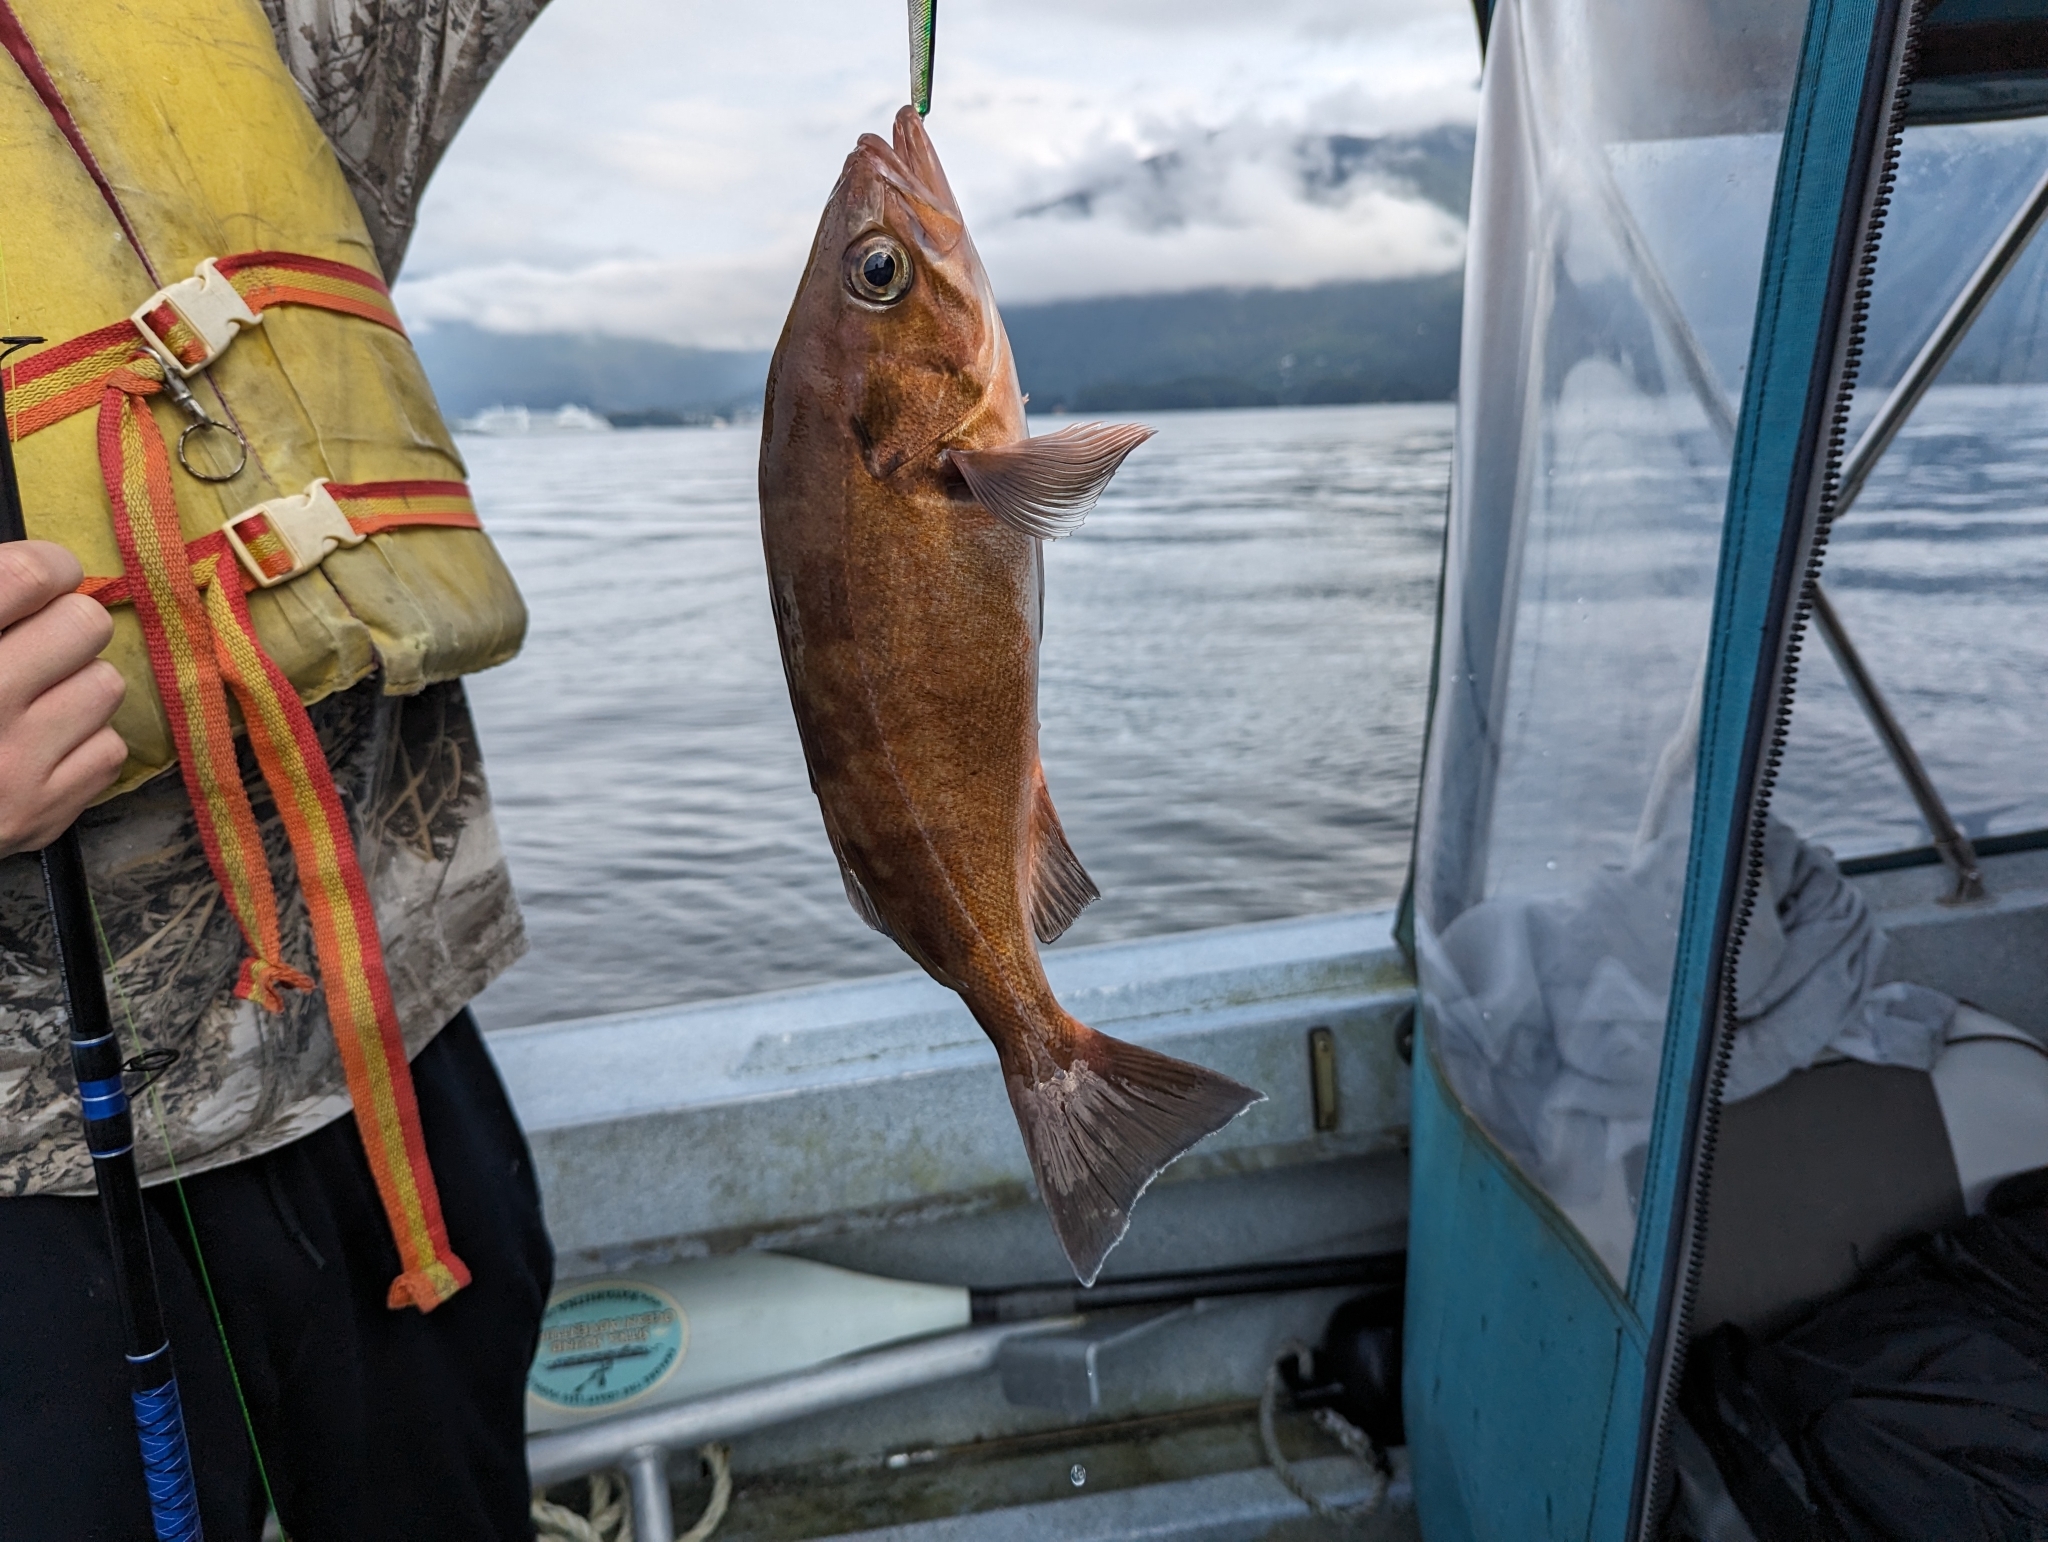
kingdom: Animalia
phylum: Chordata
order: Scorpaeniformes
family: Sebastidae
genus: Sebastes
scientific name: Sebastes entomelas
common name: Widow rockfish
